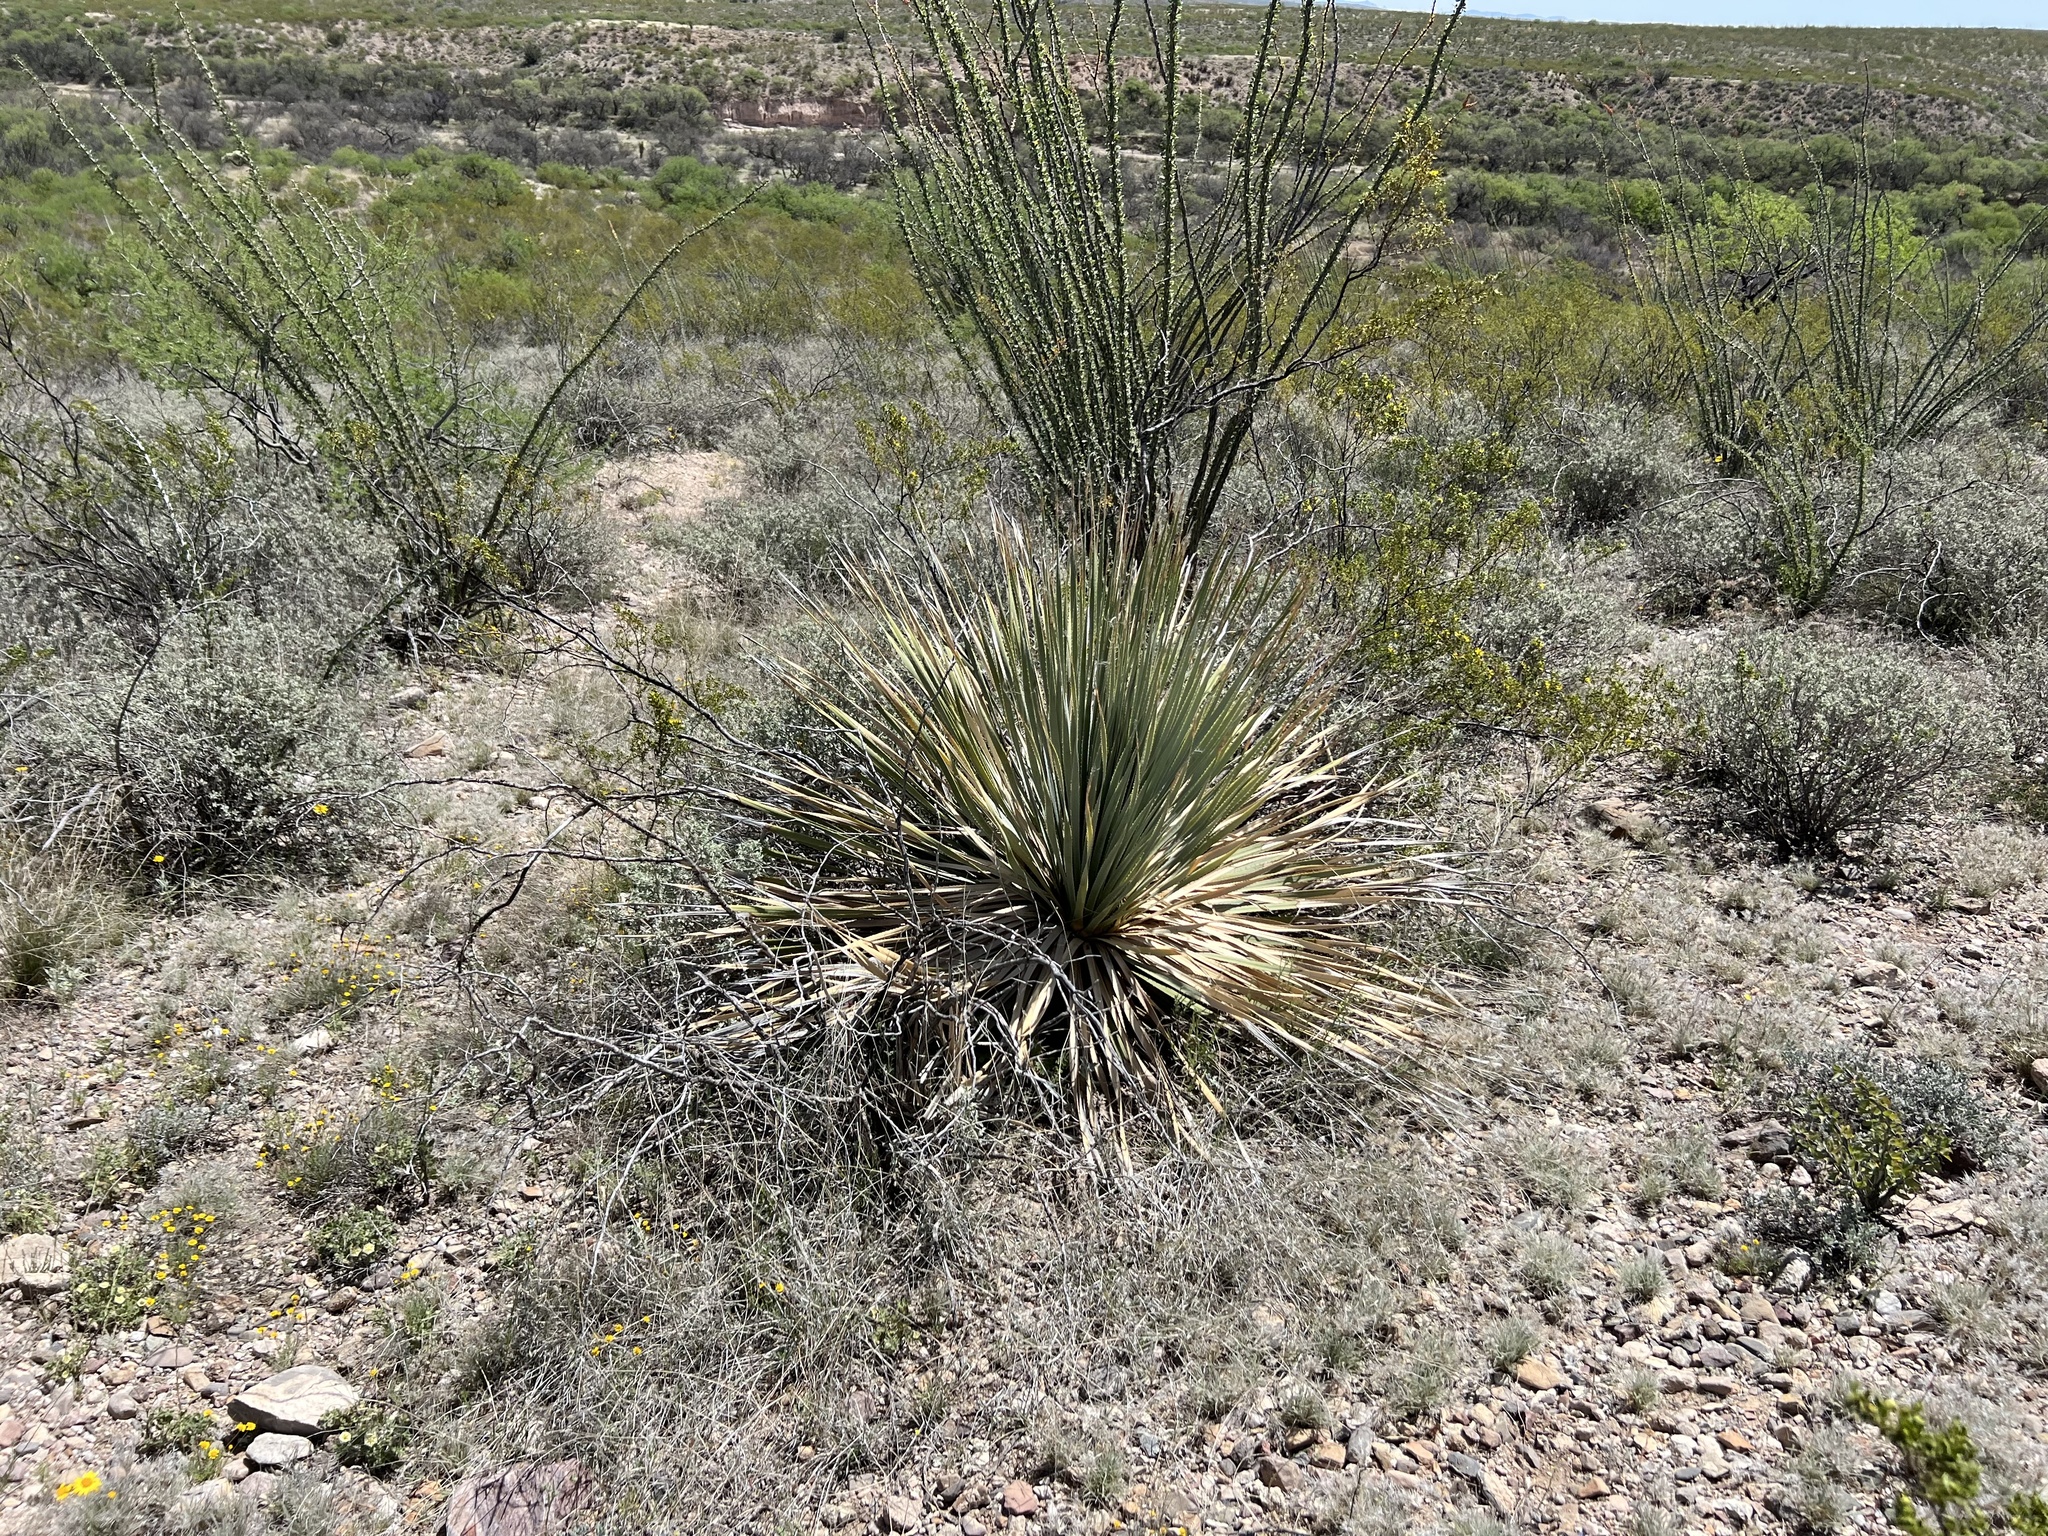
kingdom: Plantae
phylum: Tracheophyta
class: Liliopsida
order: Asparagales
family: Asparagaceae
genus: Dasylirion
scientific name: Dasylirion wheeleri
